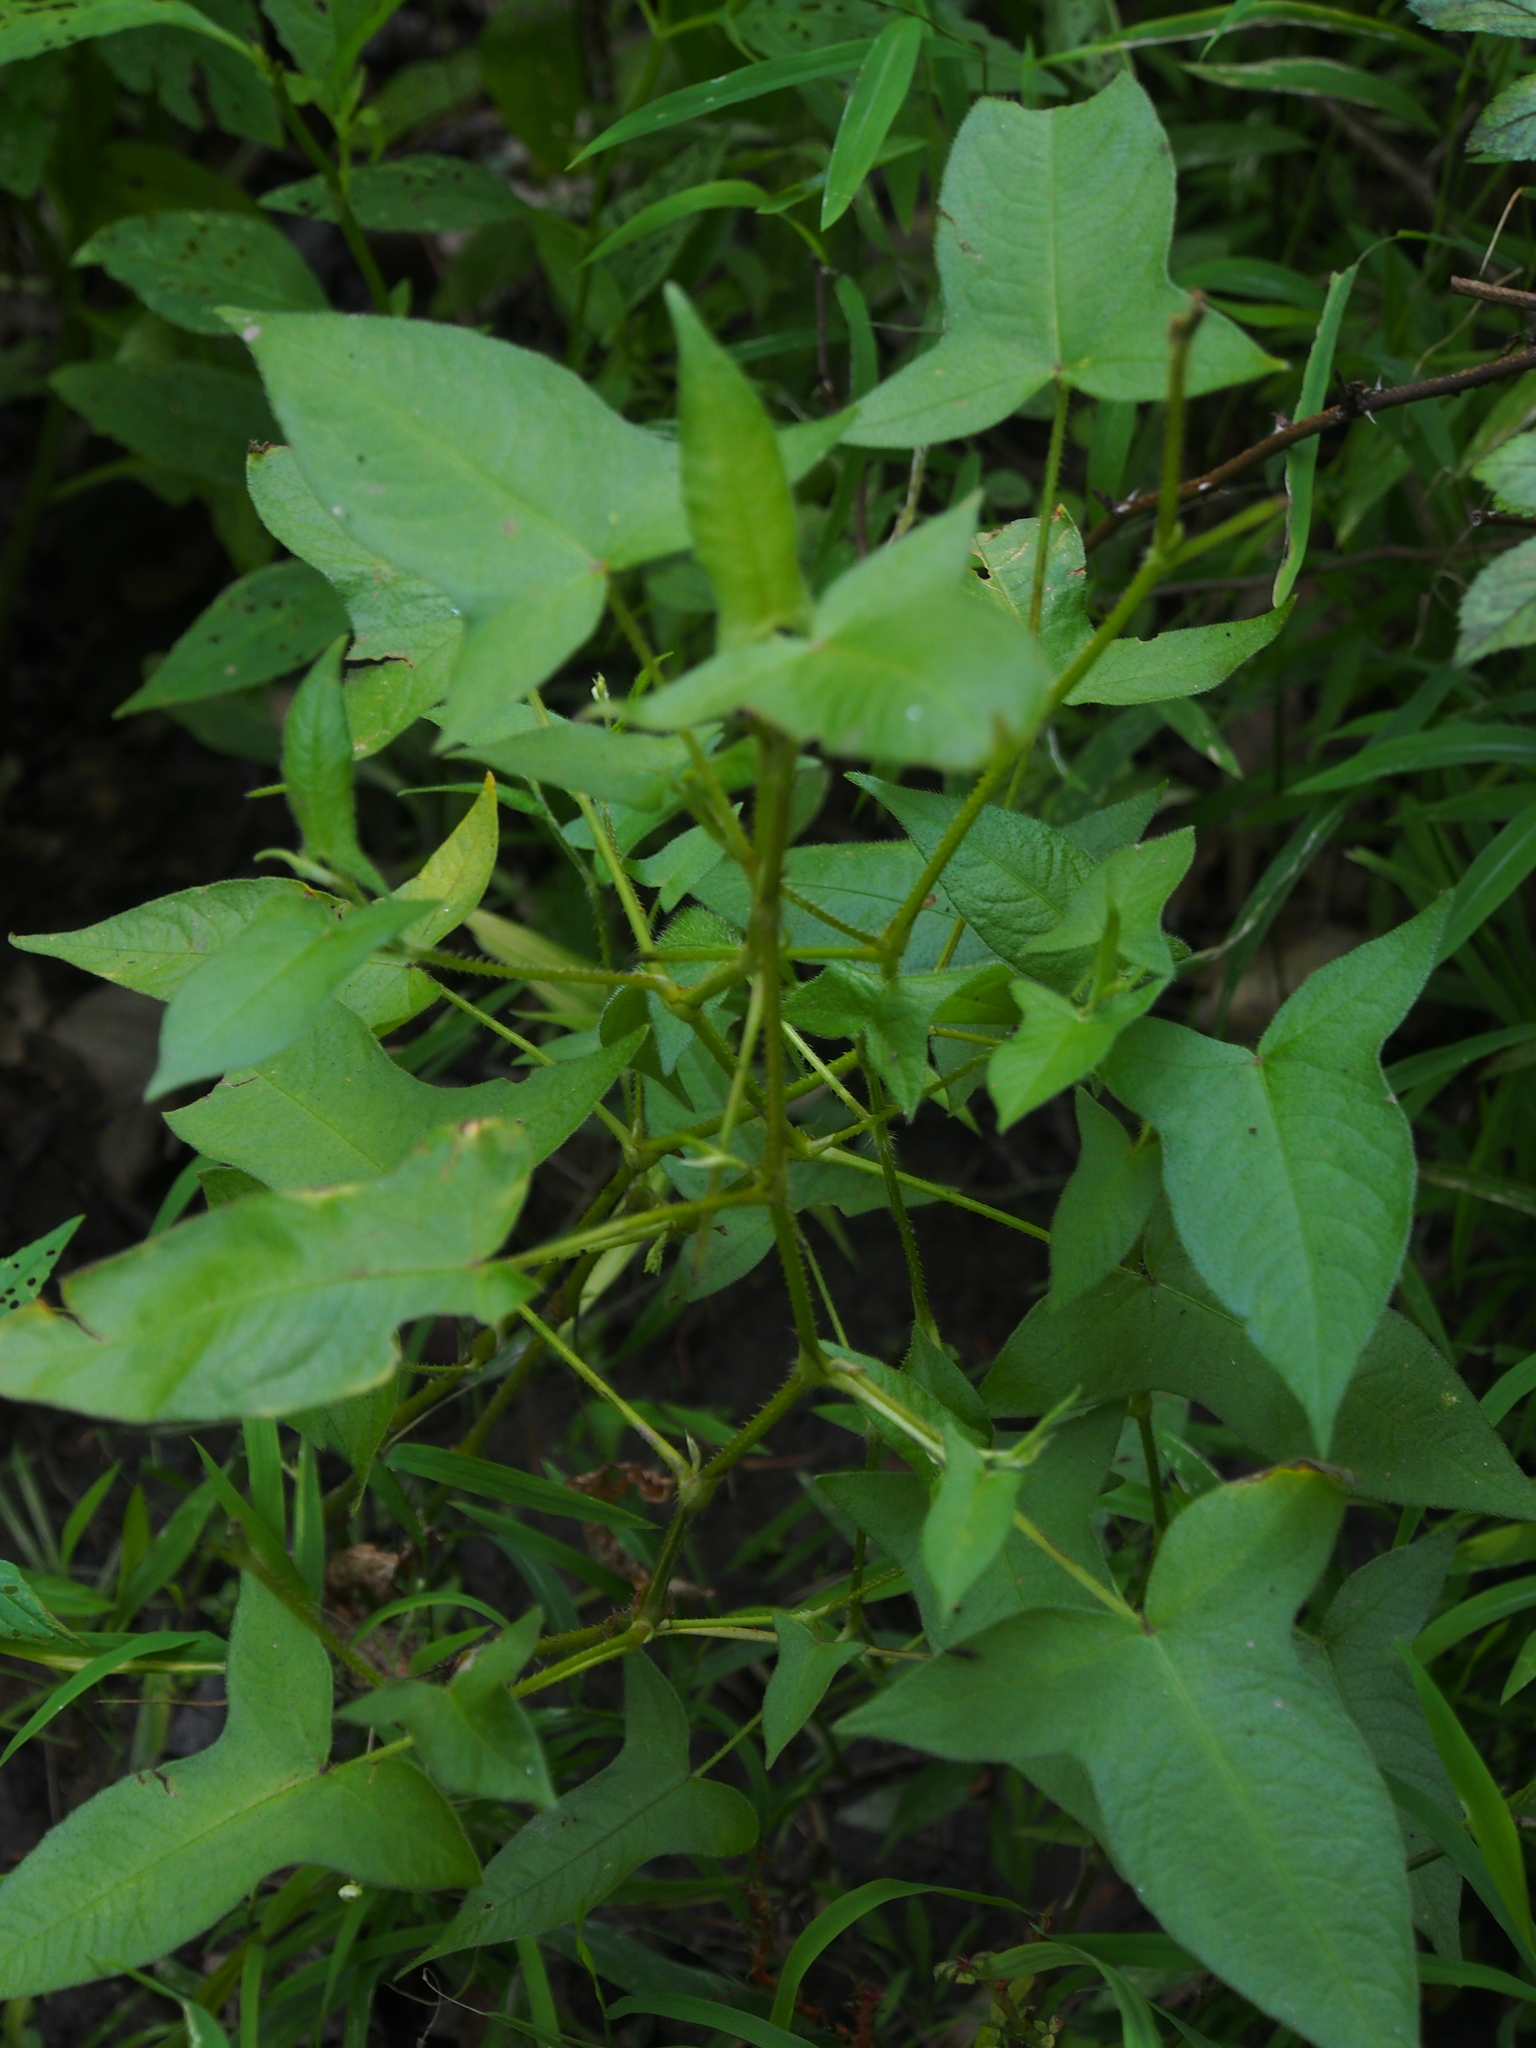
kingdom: Plantae
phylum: Tracheophyta
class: Magnoliopsida
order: Caryophyllales
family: Polygonaceae
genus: Persicaria
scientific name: Persicaria arifolia
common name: Halberd-leaved tear-thumb
